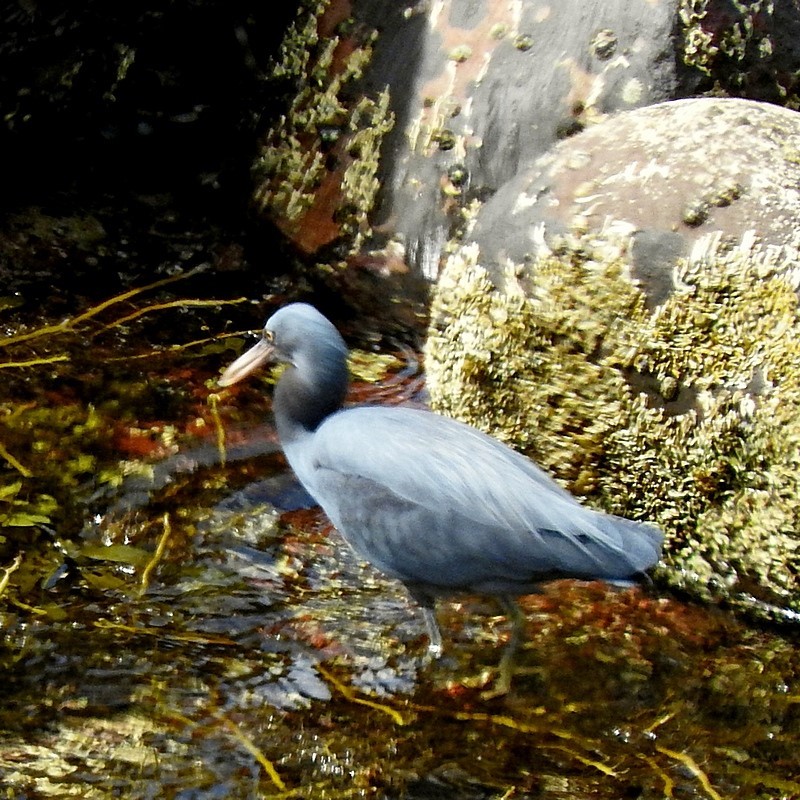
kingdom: Animalia
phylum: Chordata
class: Aves
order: Pelecaniformes
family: Ardeidae
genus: Egretta
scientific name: Egretta sacra
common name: Pacific reef heron
